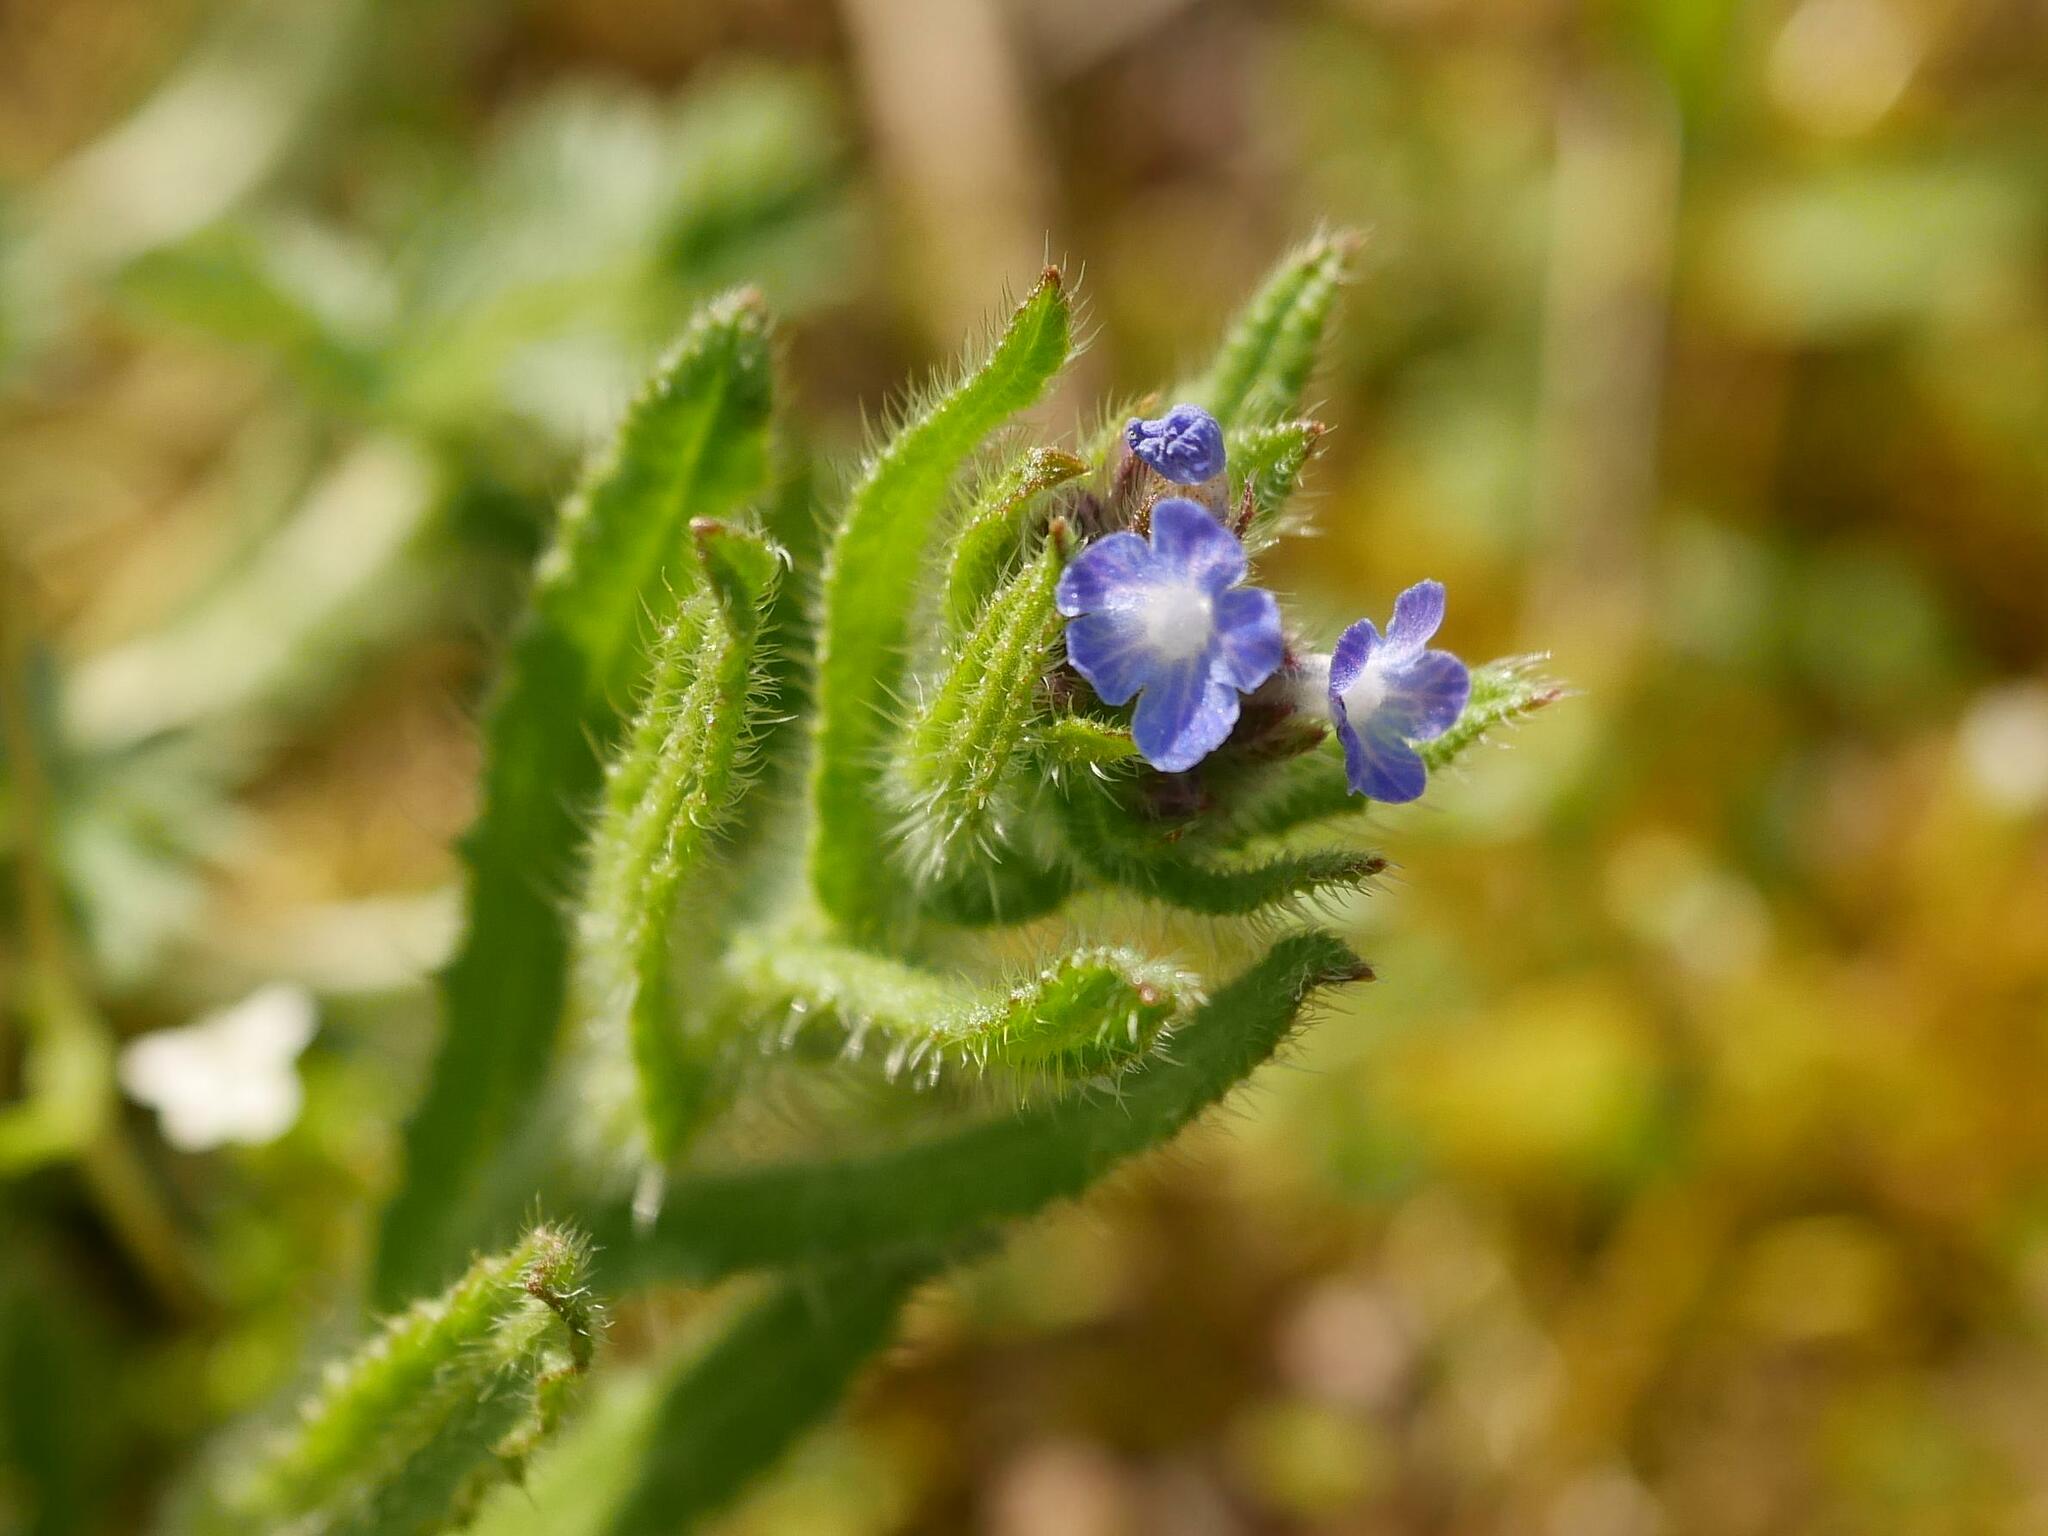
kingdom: Plantae
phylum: Tracheophyta
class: Magnoliopsida
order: Boraginales
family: Boraginaceae
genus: Lycopsis
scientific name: Lycopsis arvensis
